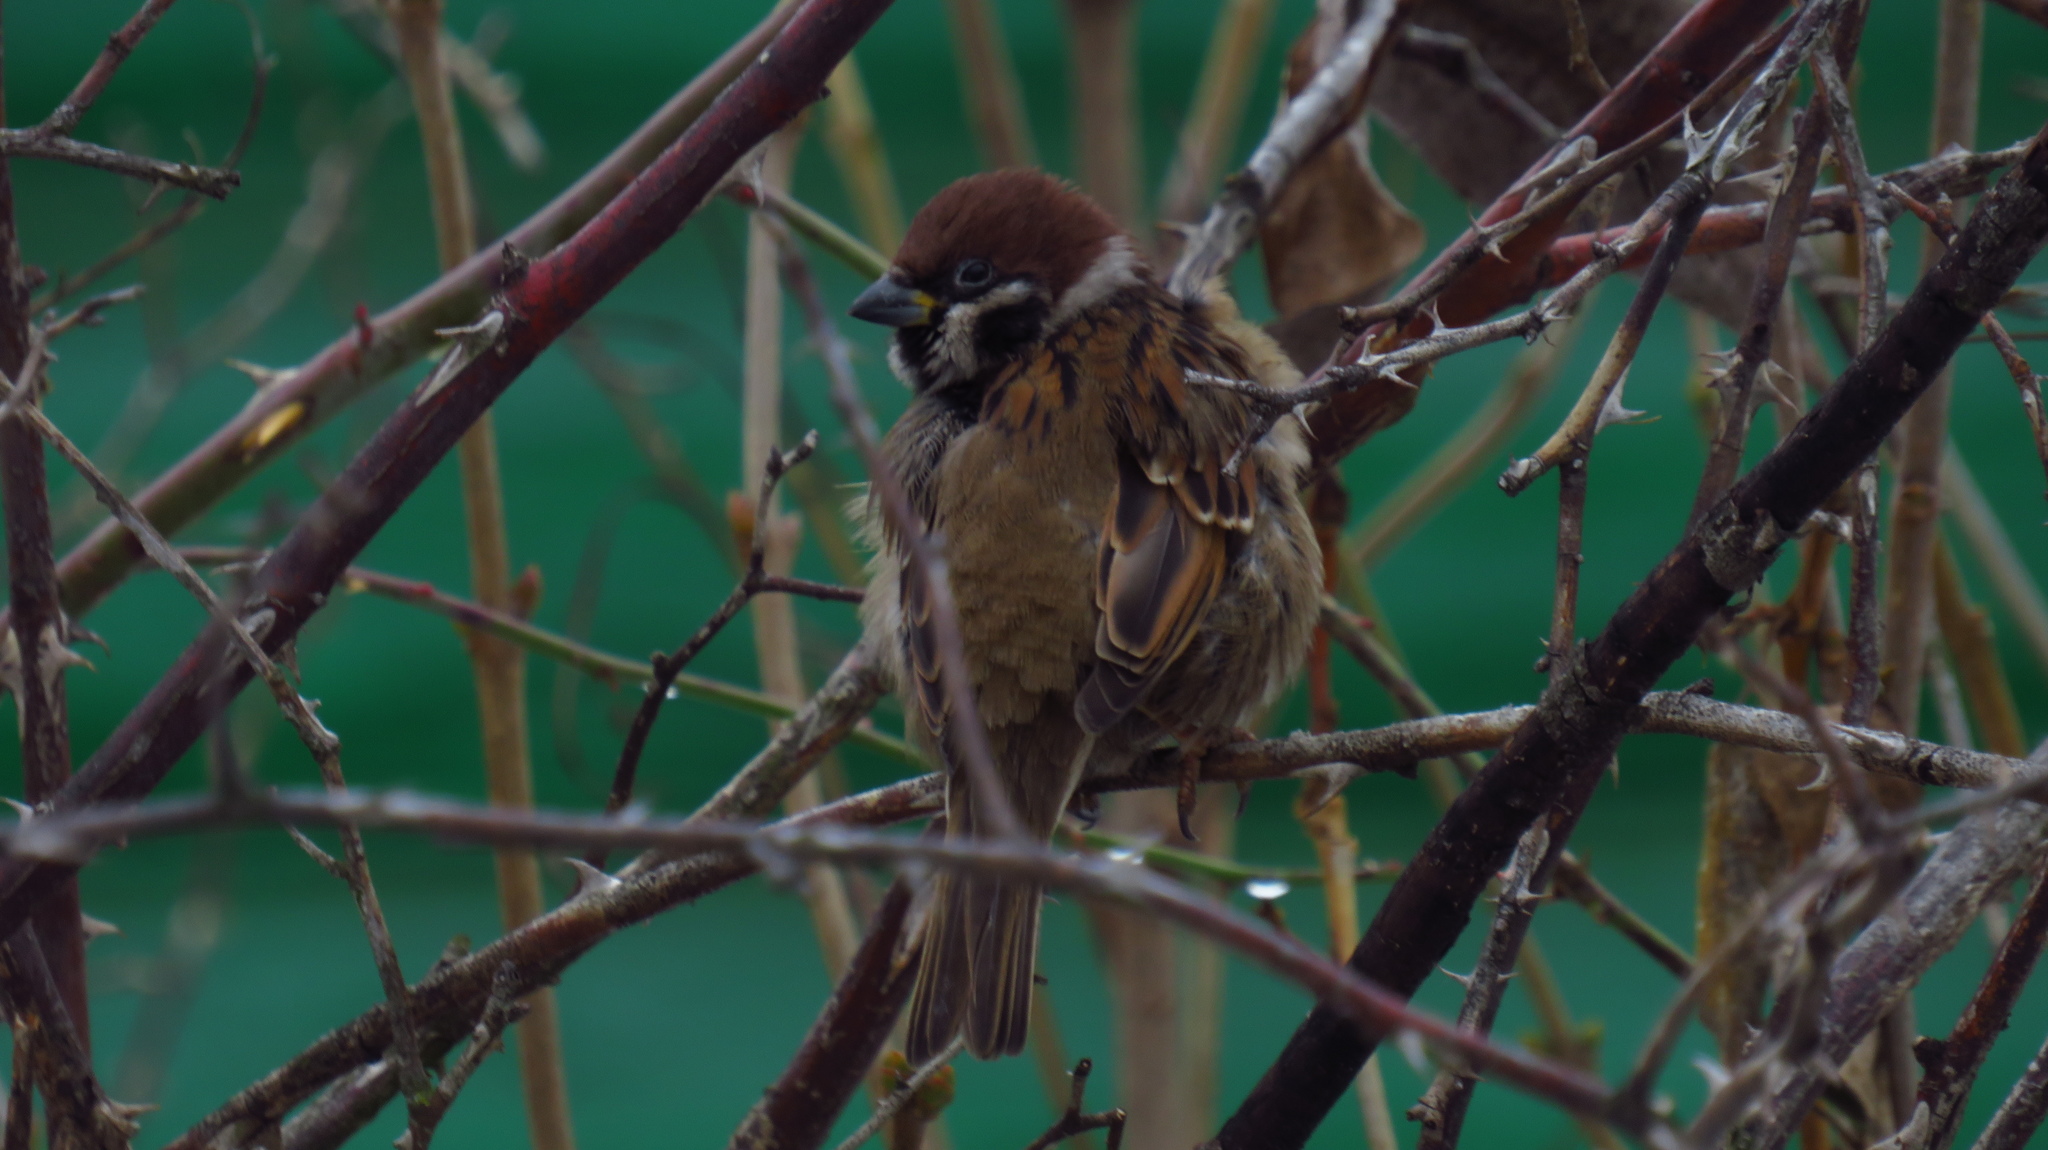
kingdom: Animalia
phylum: Chordata
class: Aves
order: Passeriformes
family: Passeridae
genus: Passer
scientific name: Passer montanus
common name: Eurasian tree sparrow
